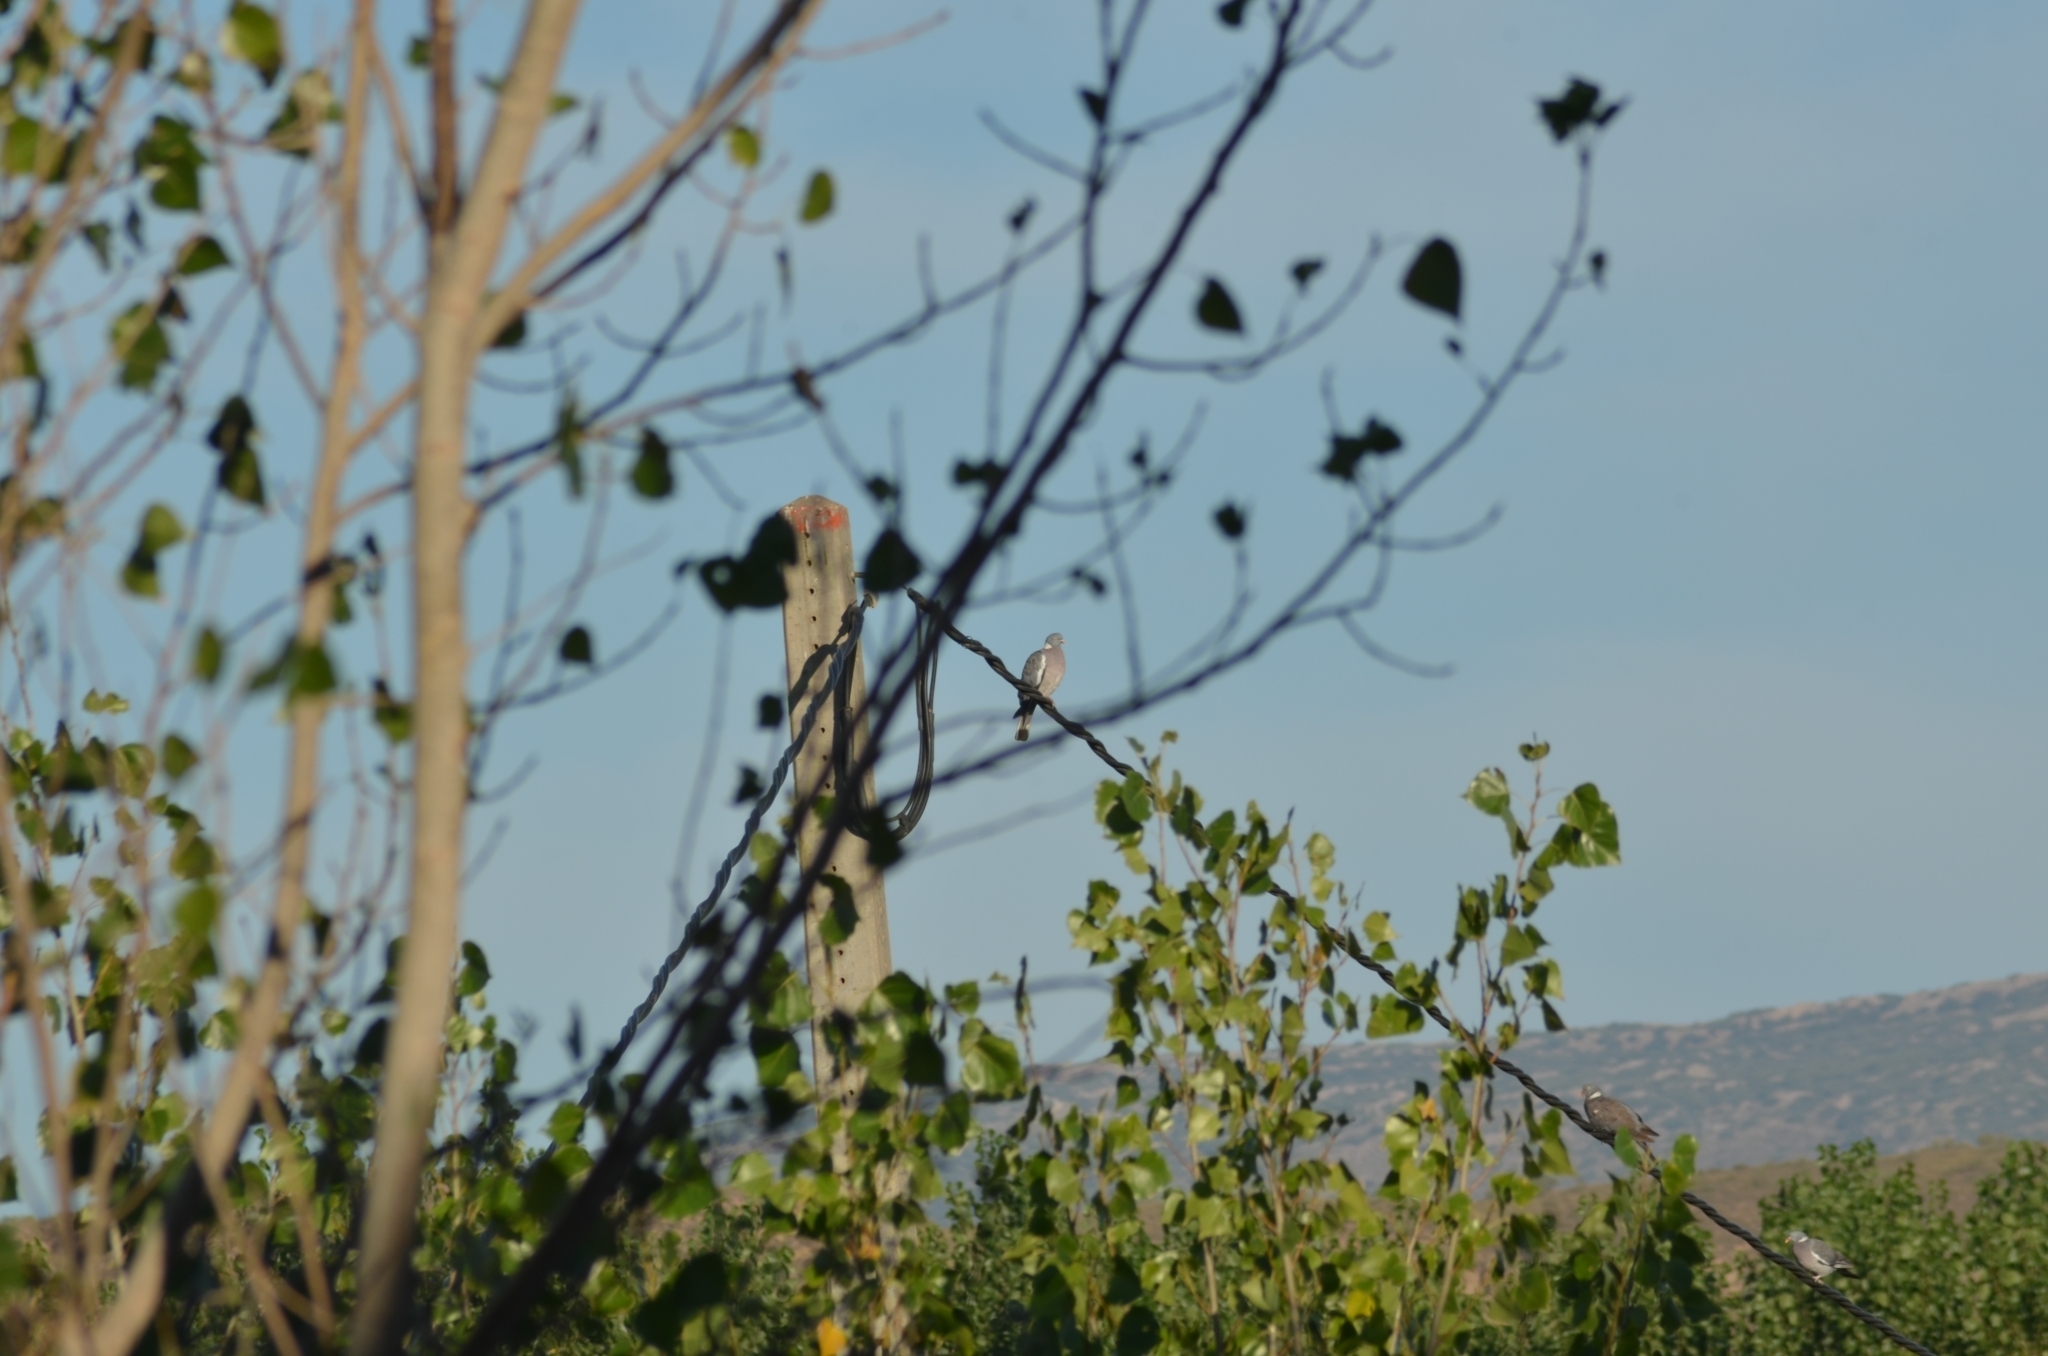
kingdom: Animalia
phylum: Chordata
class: Aves
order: Columbiformes
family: Columbidae
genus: Columba
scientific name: Columba palumbus
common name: Common wood pigeon
